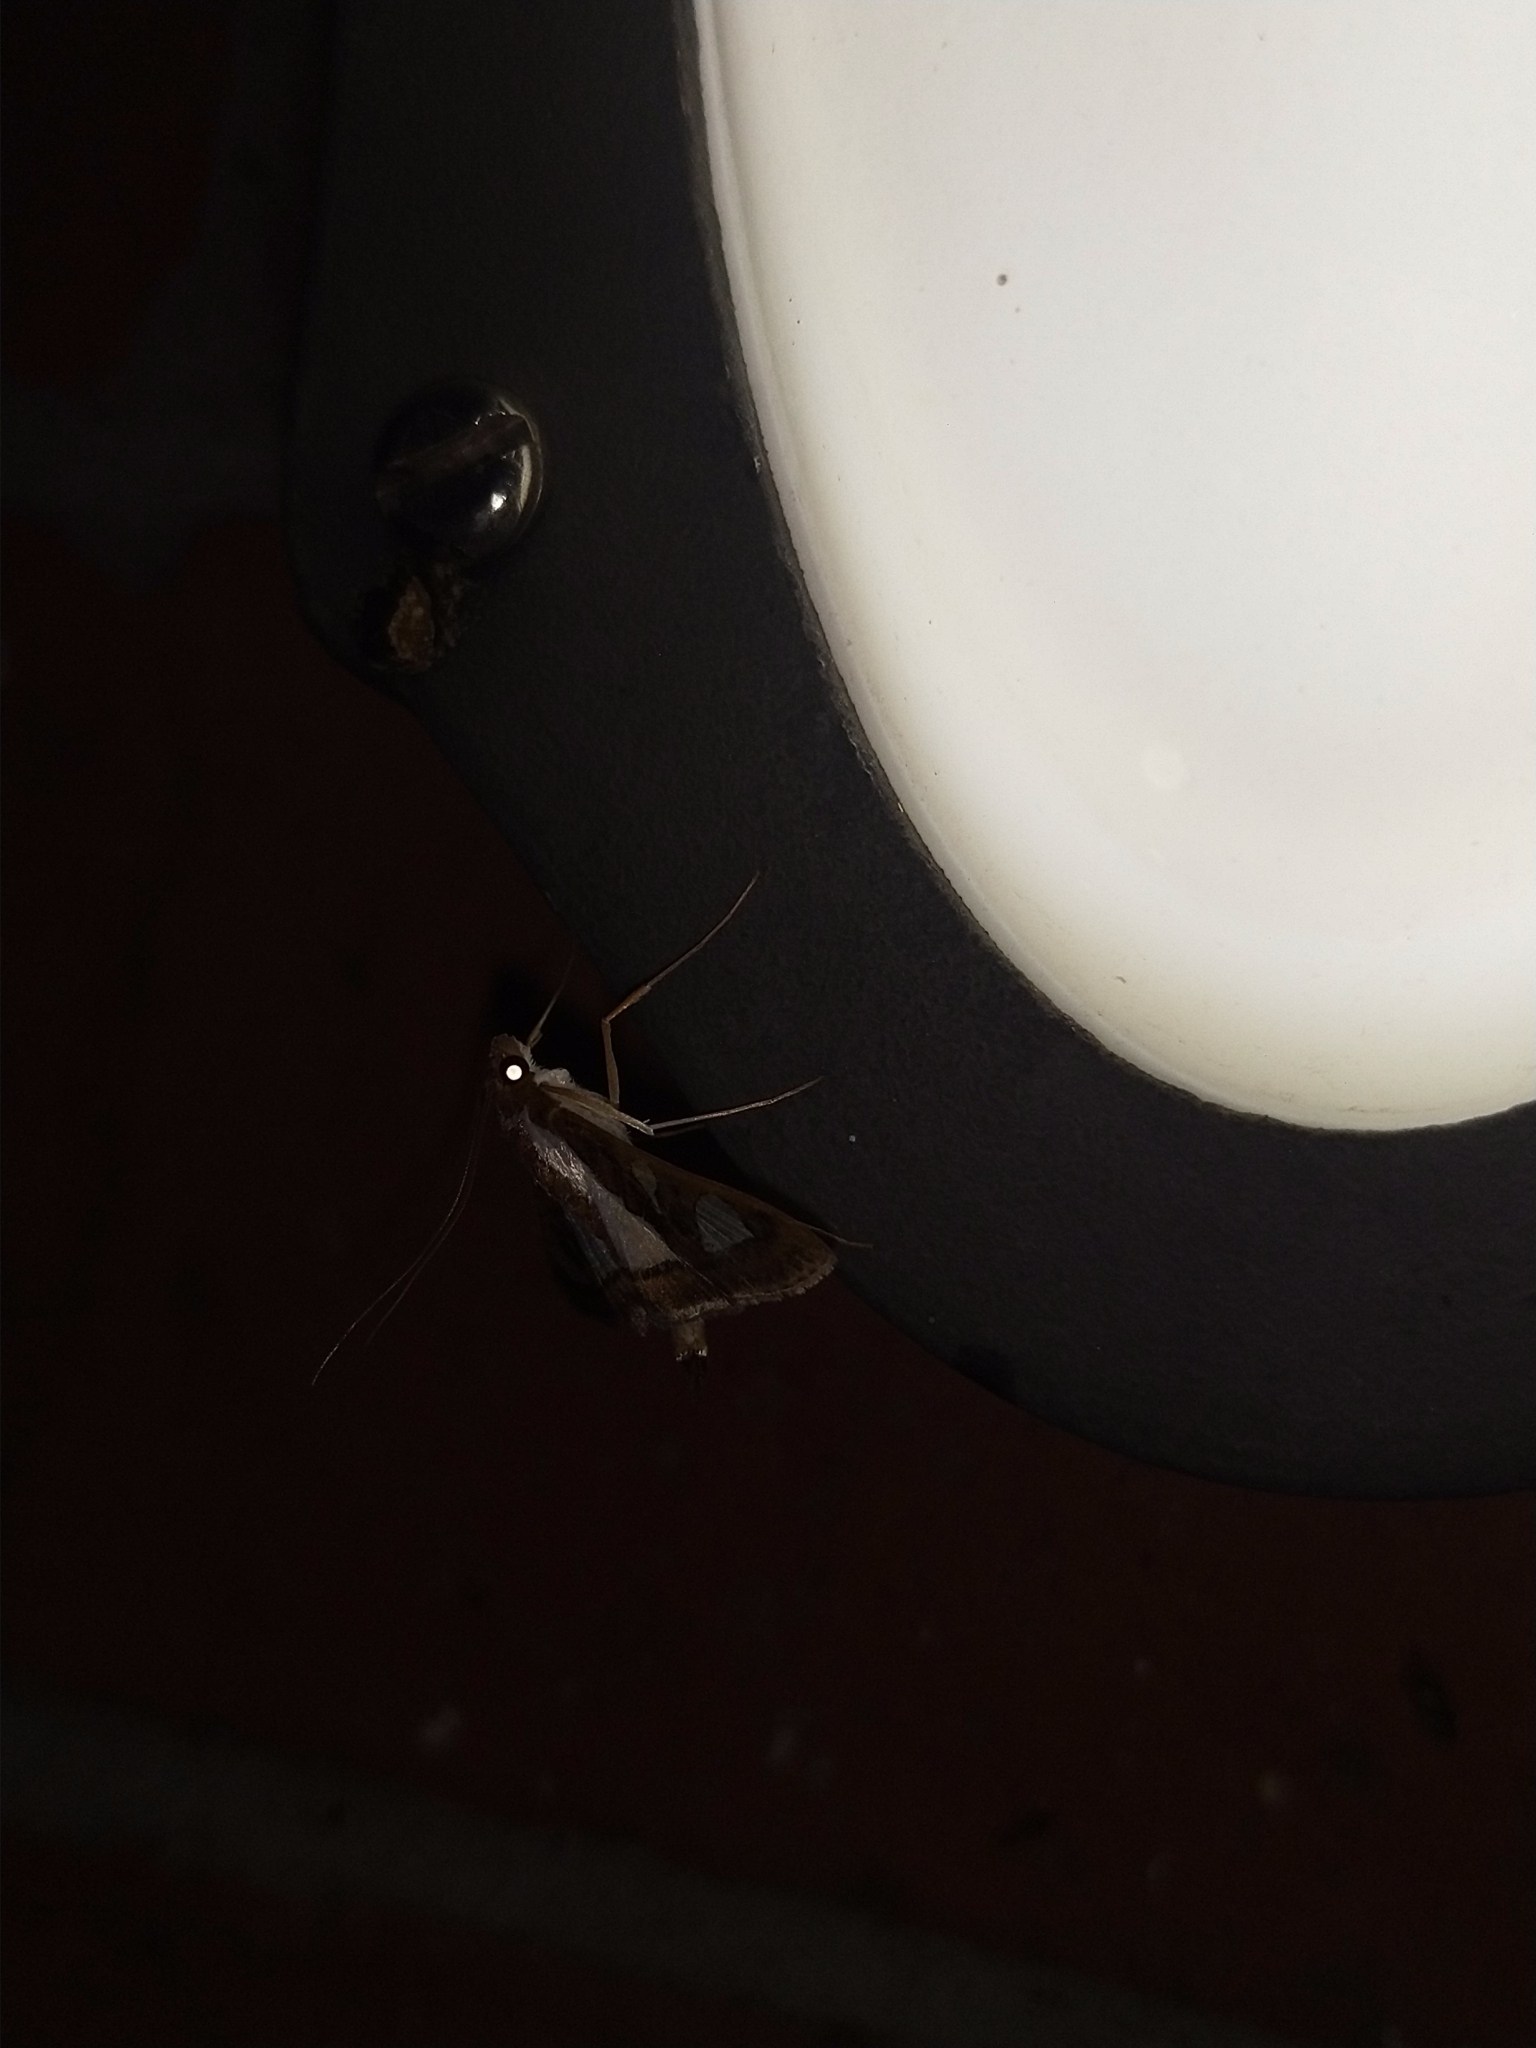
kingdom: Animalia
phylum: Arthropoda
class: Insecta
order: Lepidoptera
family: Crambidae
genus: Glyphodes
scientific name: Glyphodes bivitralis
